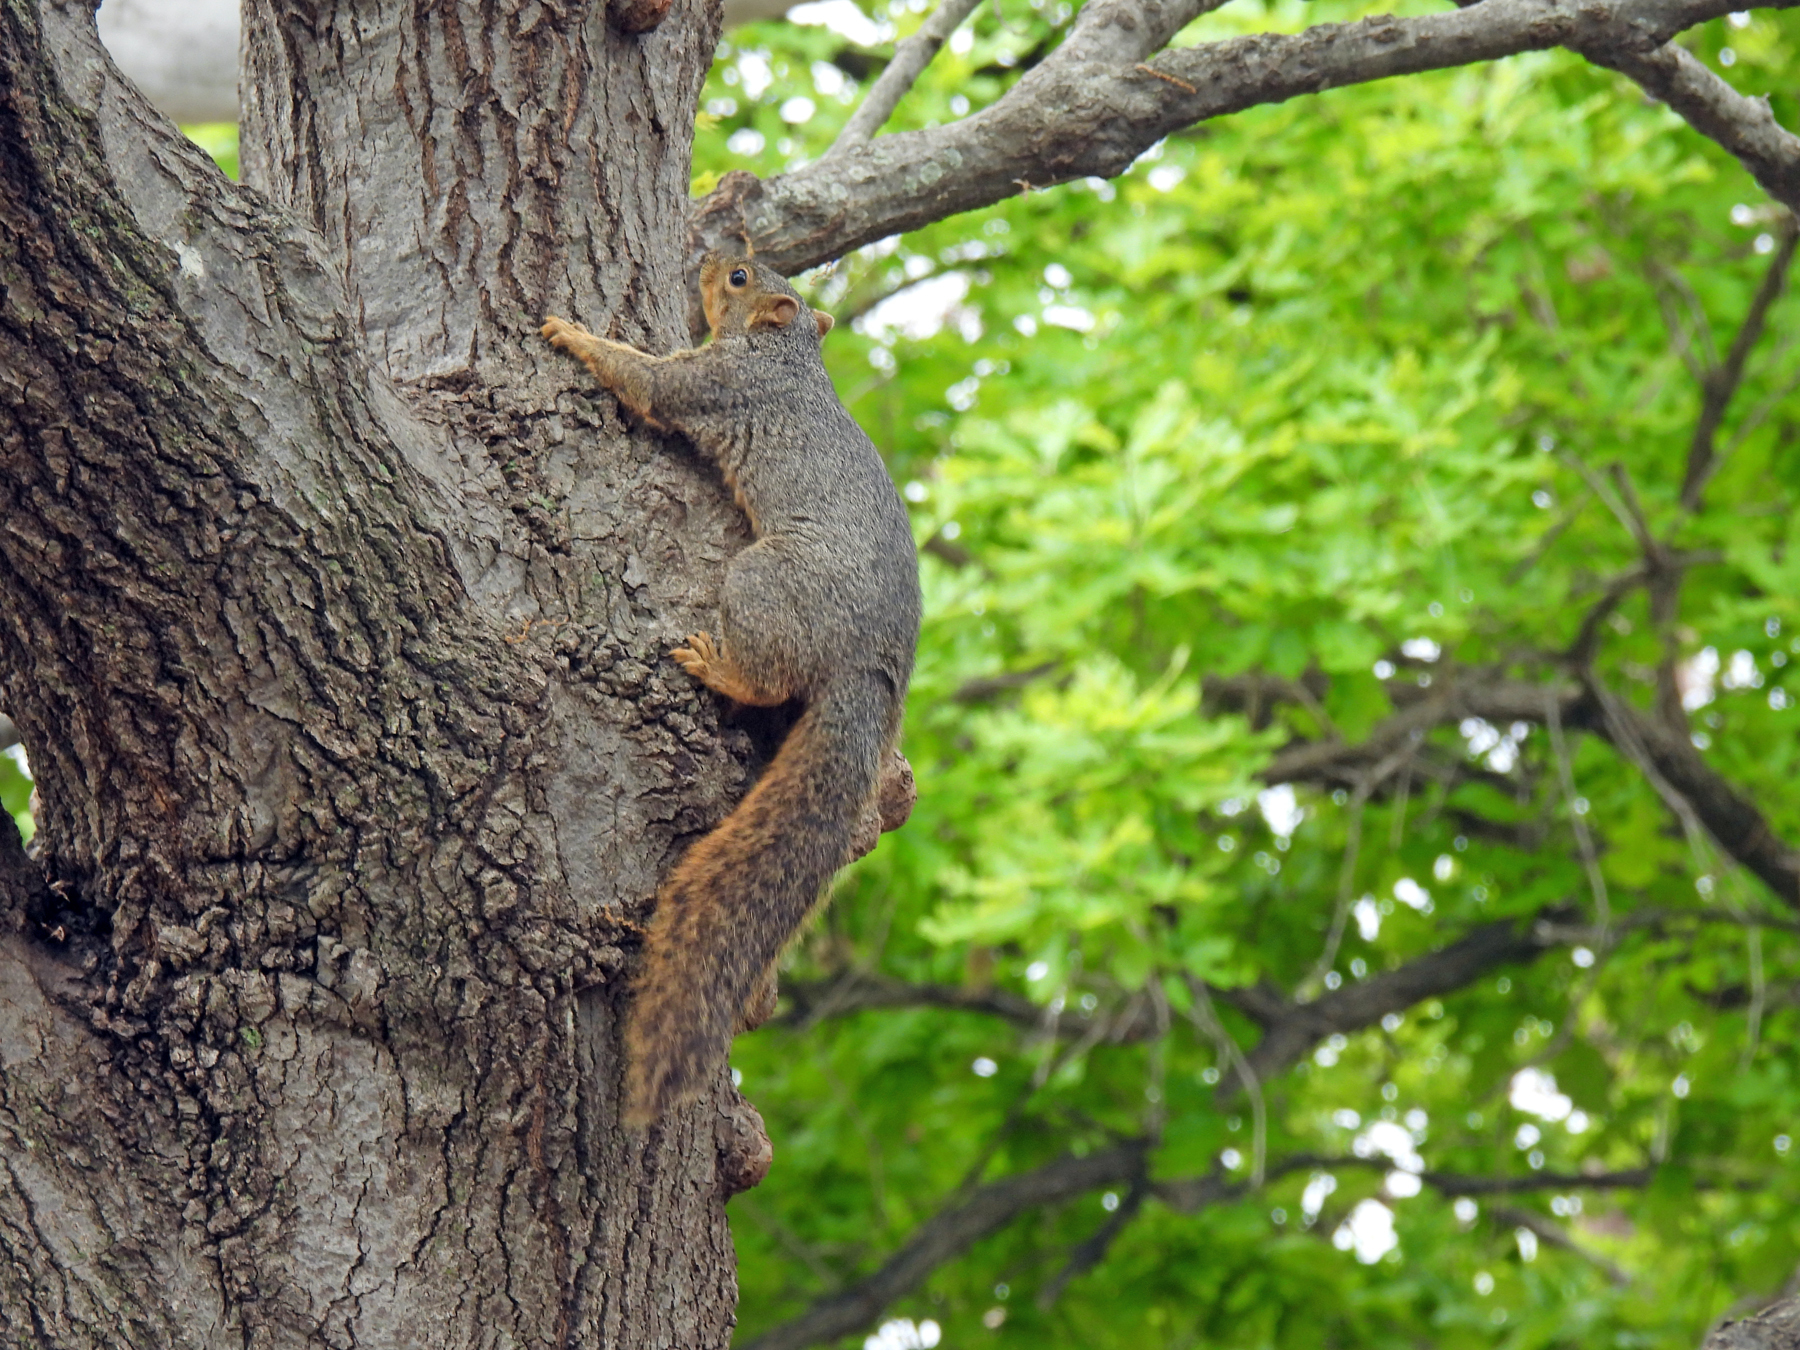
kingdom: Animalia
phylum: Chordata
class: Mammalia
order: Rodentia
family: Sciuridae
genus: Sciurus
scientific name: Sciurus niger
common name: Fox squirrel
